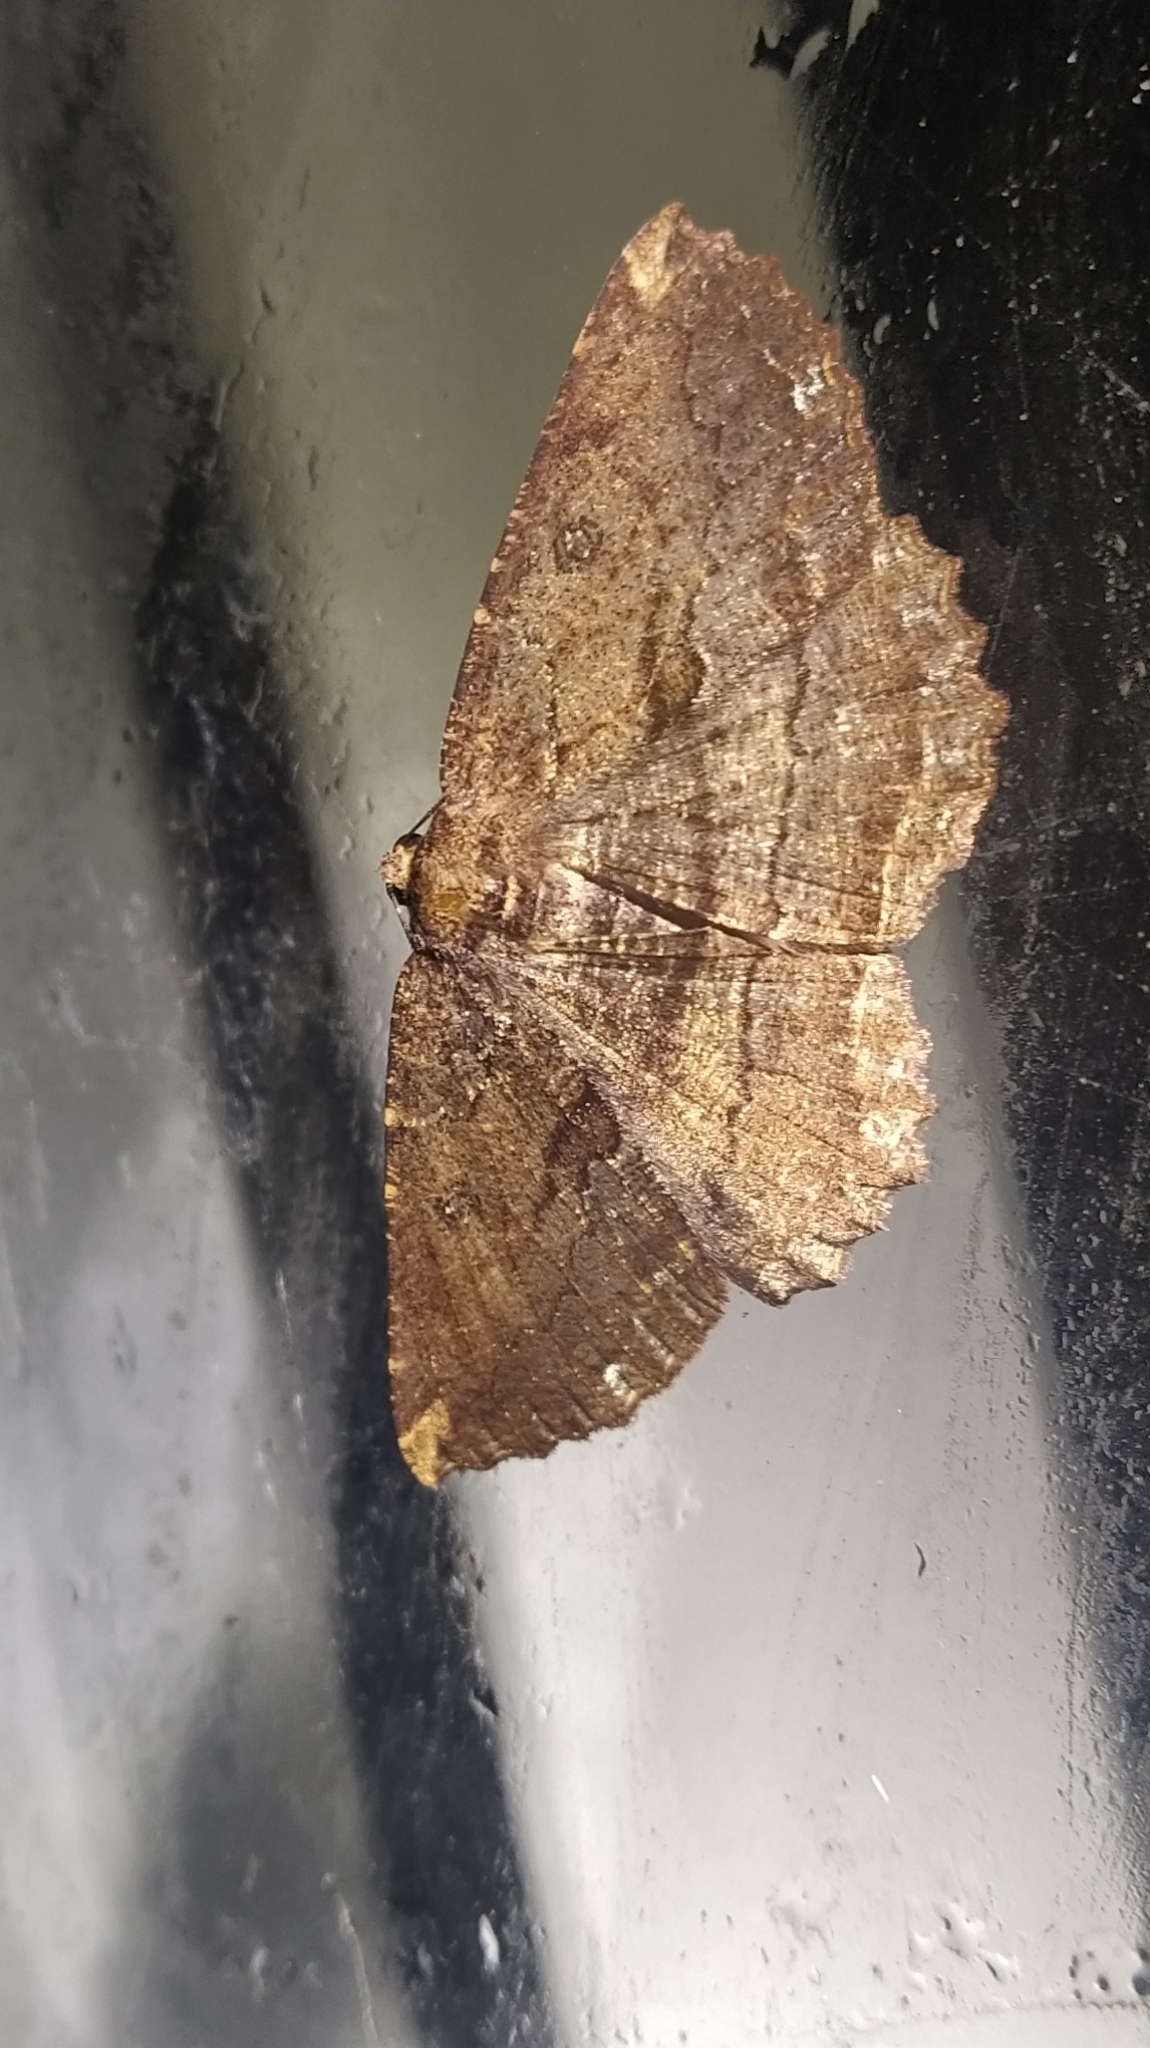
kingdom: Animalia
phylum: Arthropoda
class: Insecta
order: Lepidoptera
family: Geometridae
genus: Gellonia
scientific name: Gellonia dejectaria
